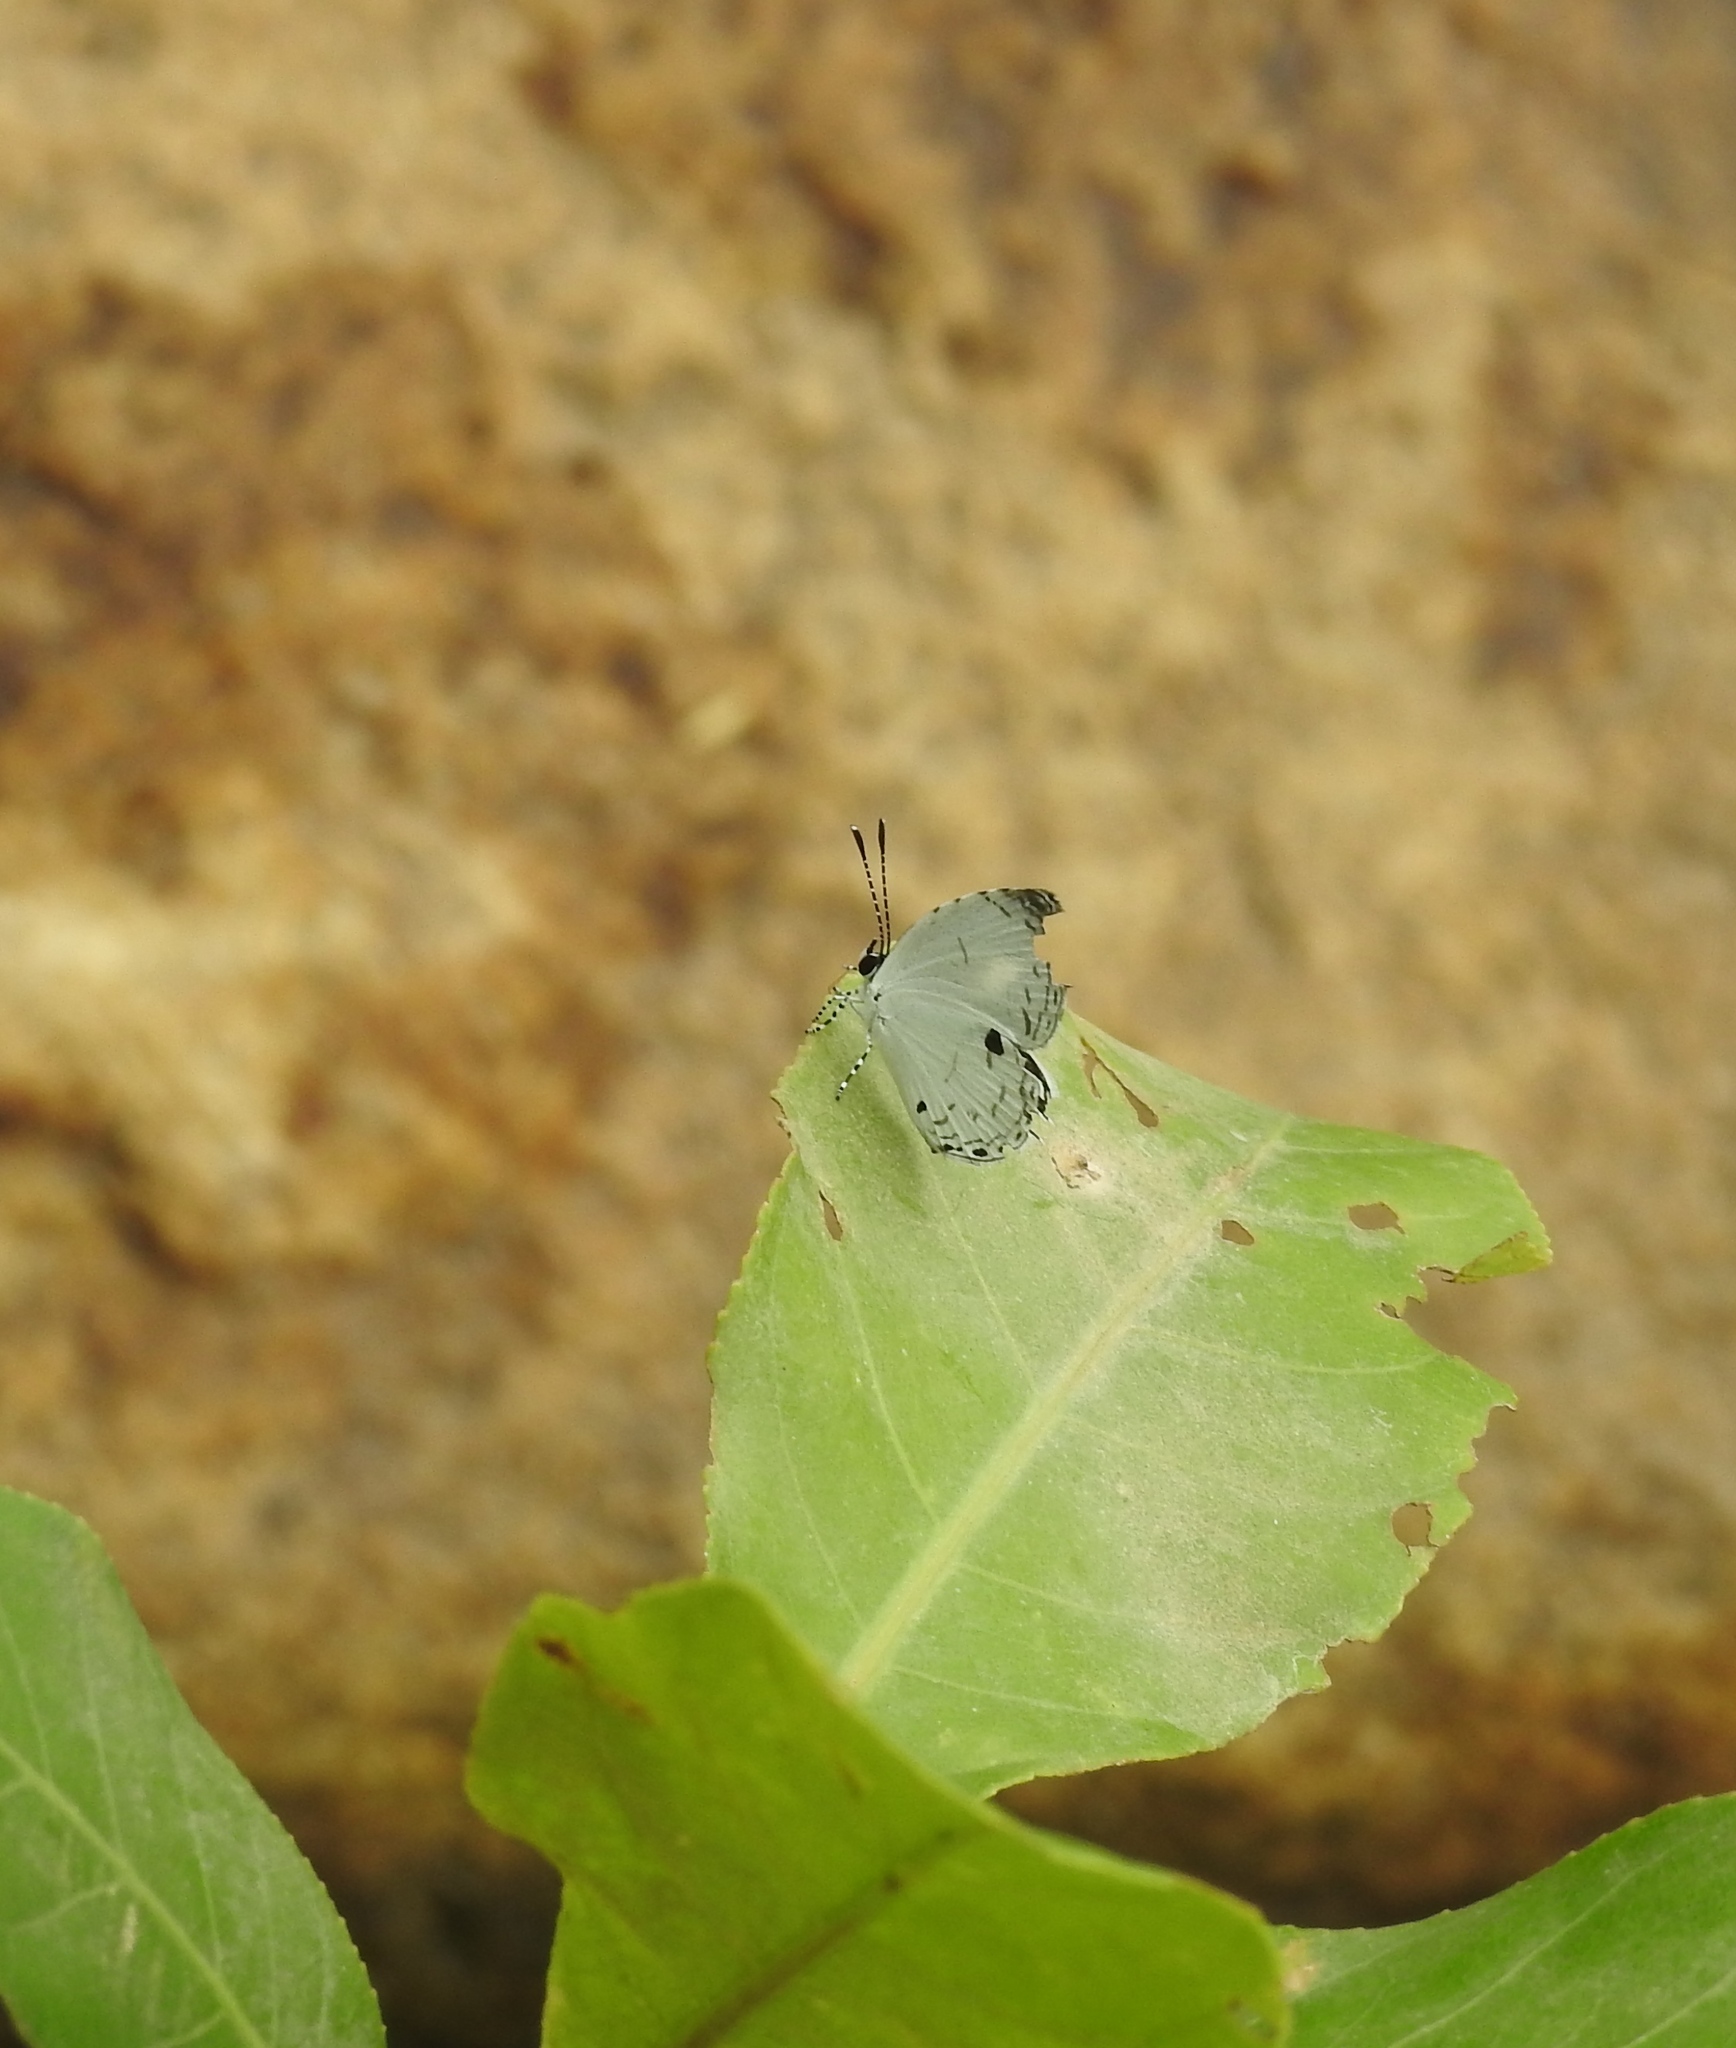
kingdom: Animalia
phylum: Arthropoda
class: Insecta
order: Lepidoptera
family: Lycaenidae
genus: Neopithecops
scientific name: Neopithecops zalmora
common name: Quaker
